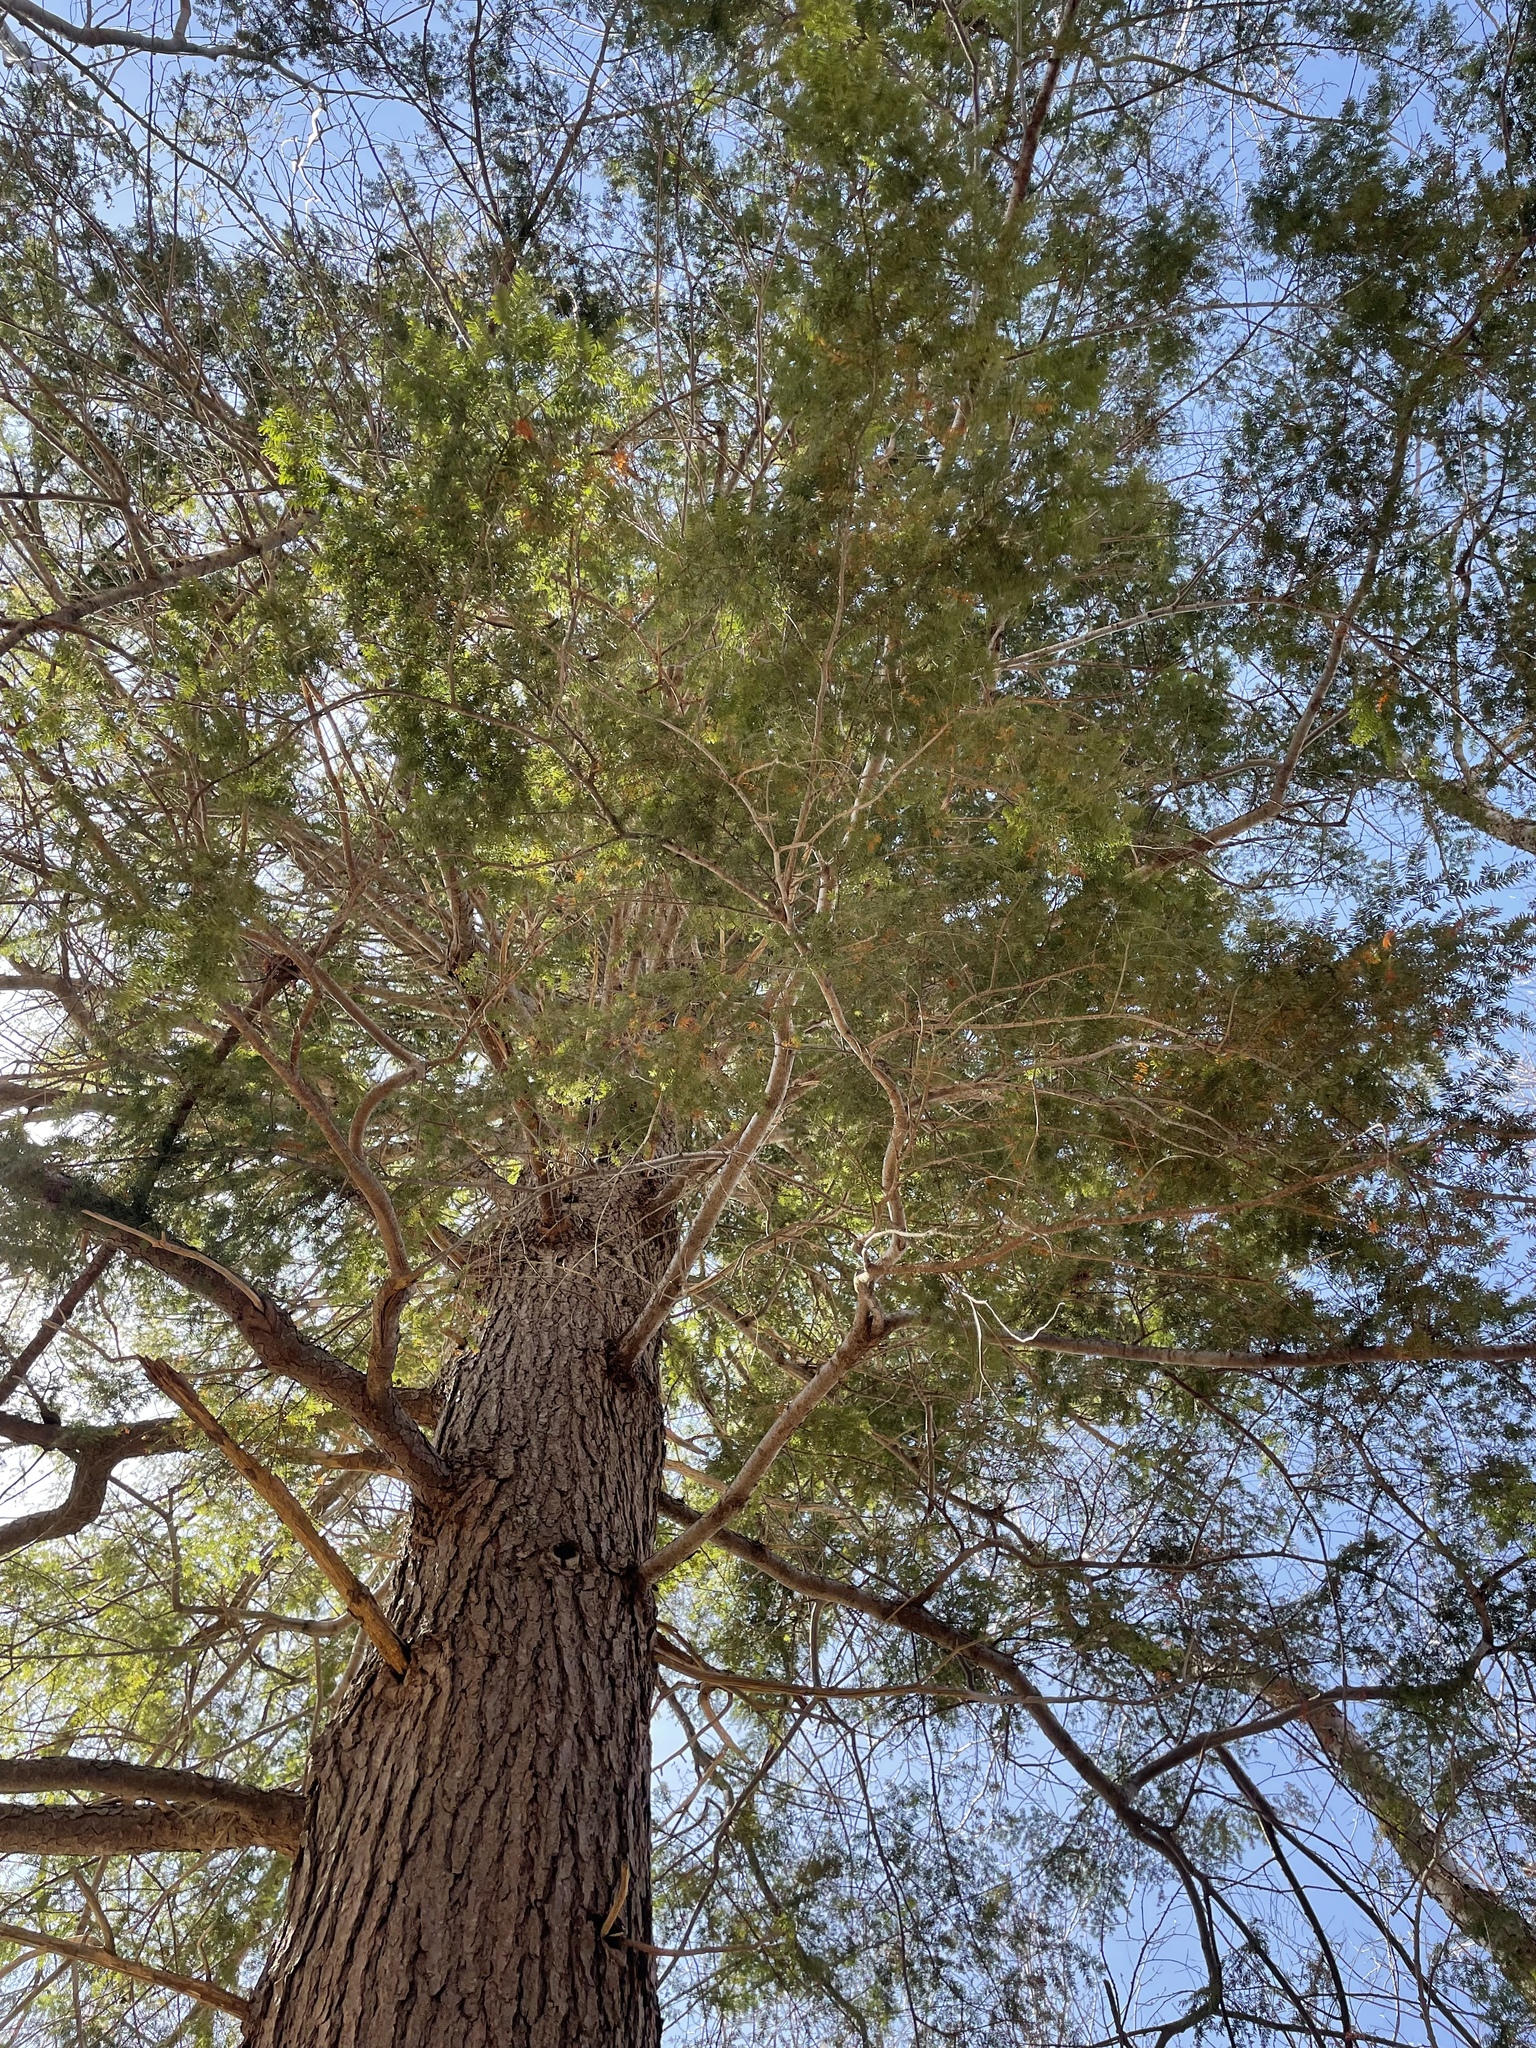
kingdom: Plantae
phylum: Tracheophyta
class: Pinopsida
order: Pinales
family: Pinaceae
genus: Tsuga
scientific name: Tsuga canadensis
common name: Eastern hemlock
